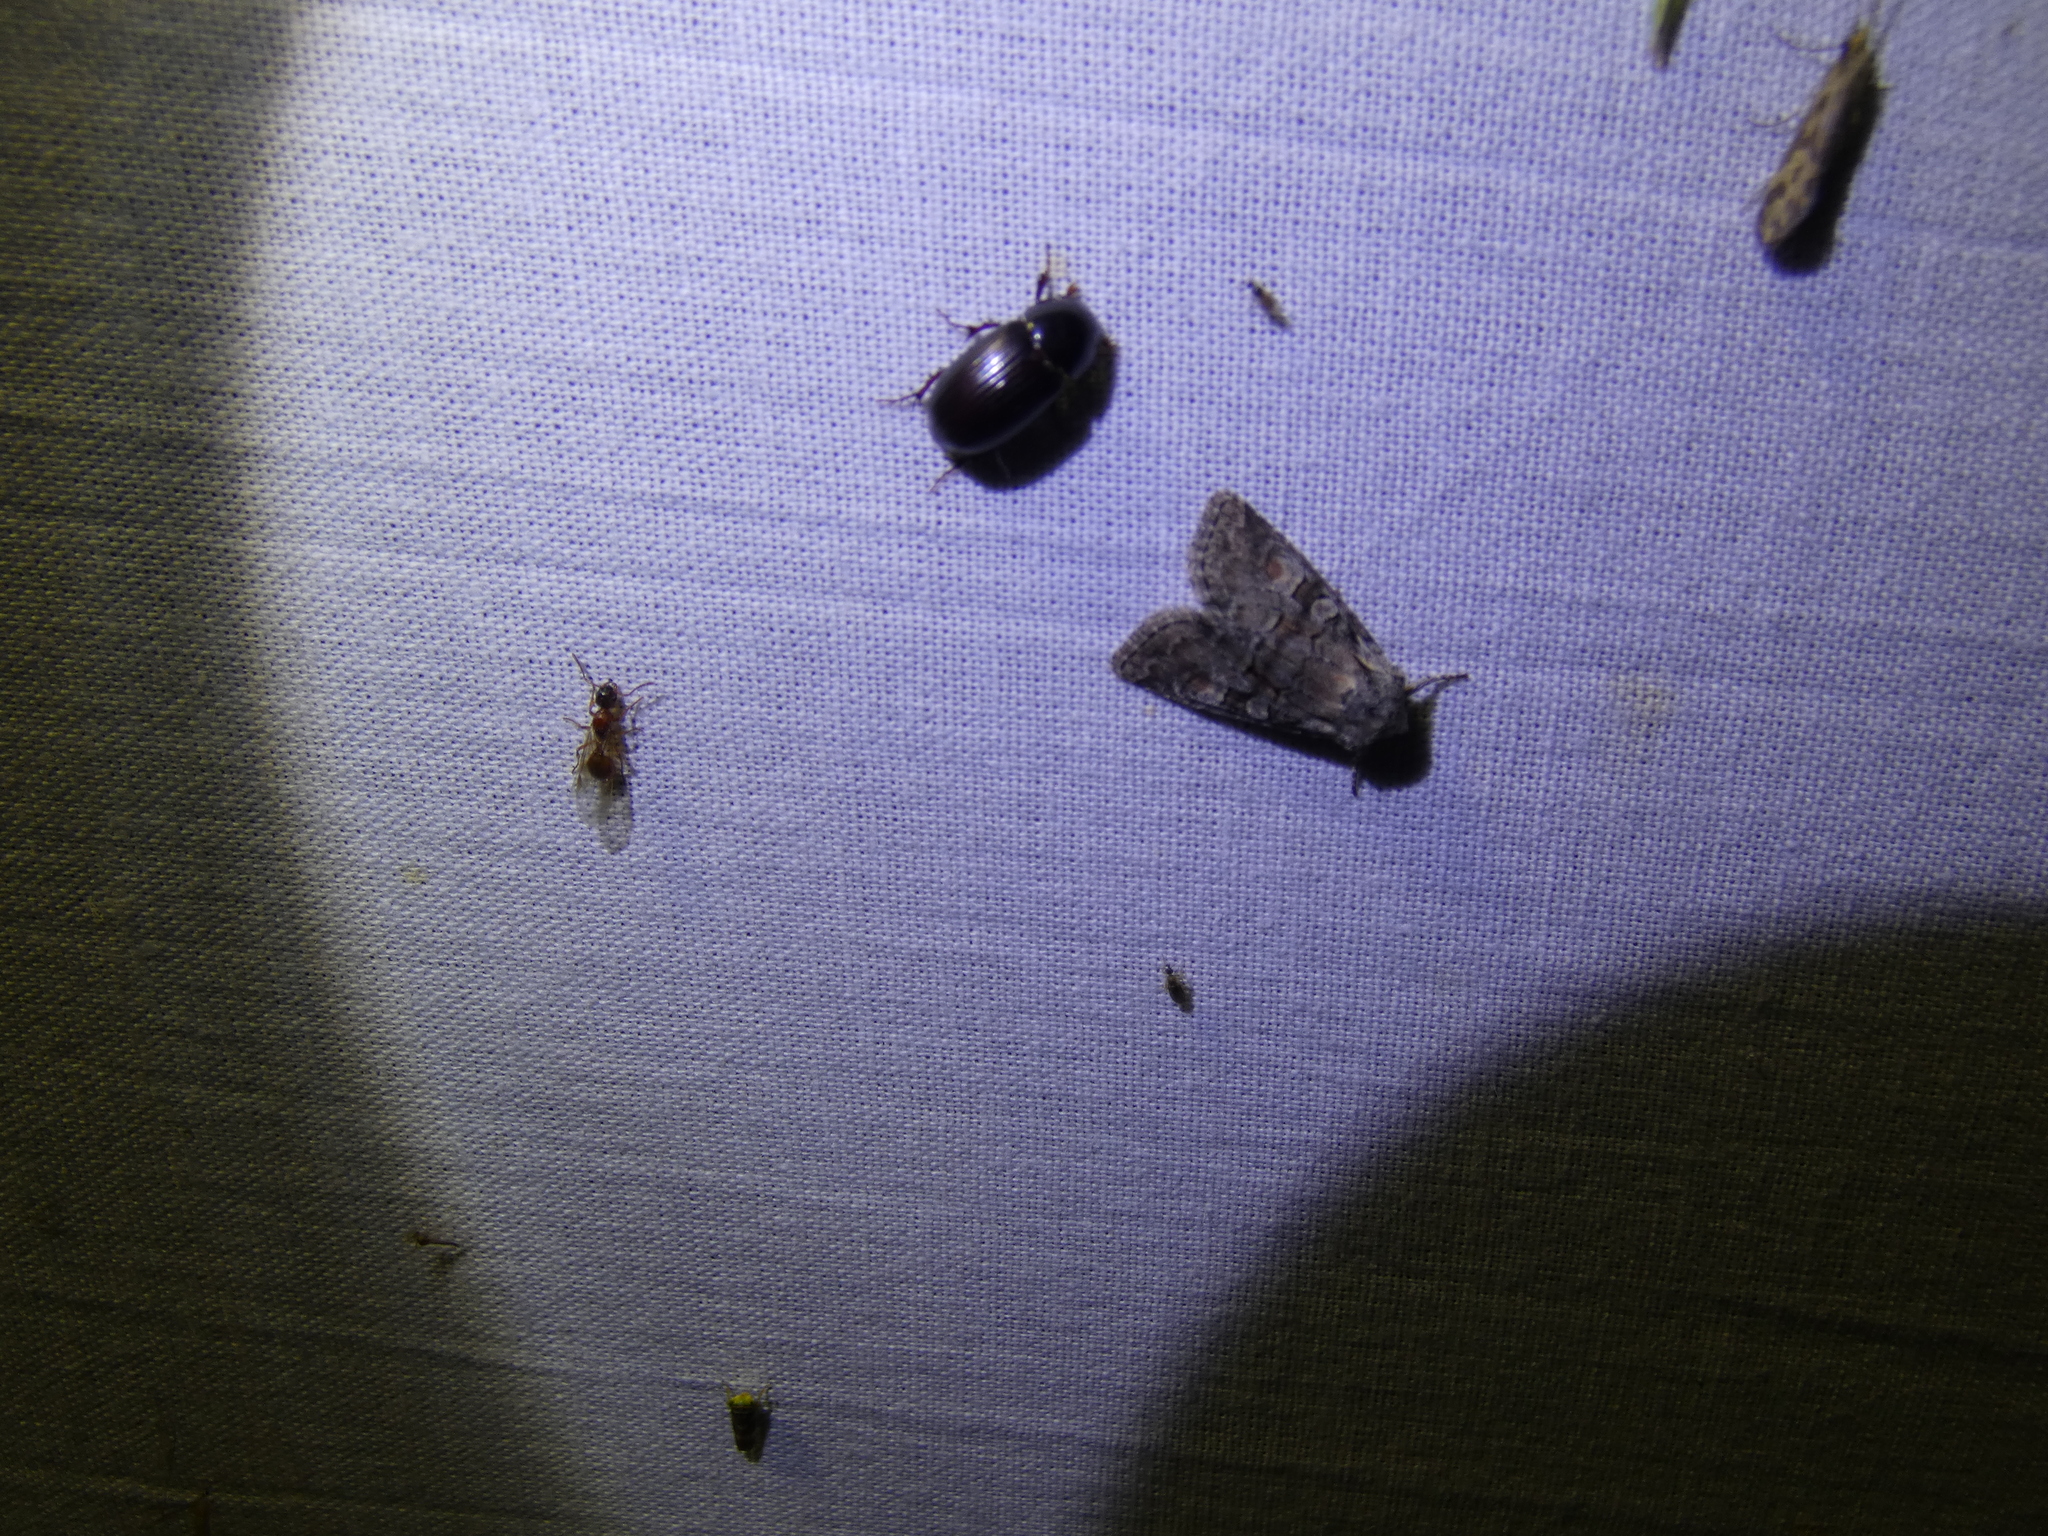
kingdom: Animalia
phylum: Arthropoda
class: Insecta
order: Lepidoptera
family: Noctuidae
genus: Brachylomia
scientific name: Brachylomia viminalis
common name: Minor shoulder-knot
